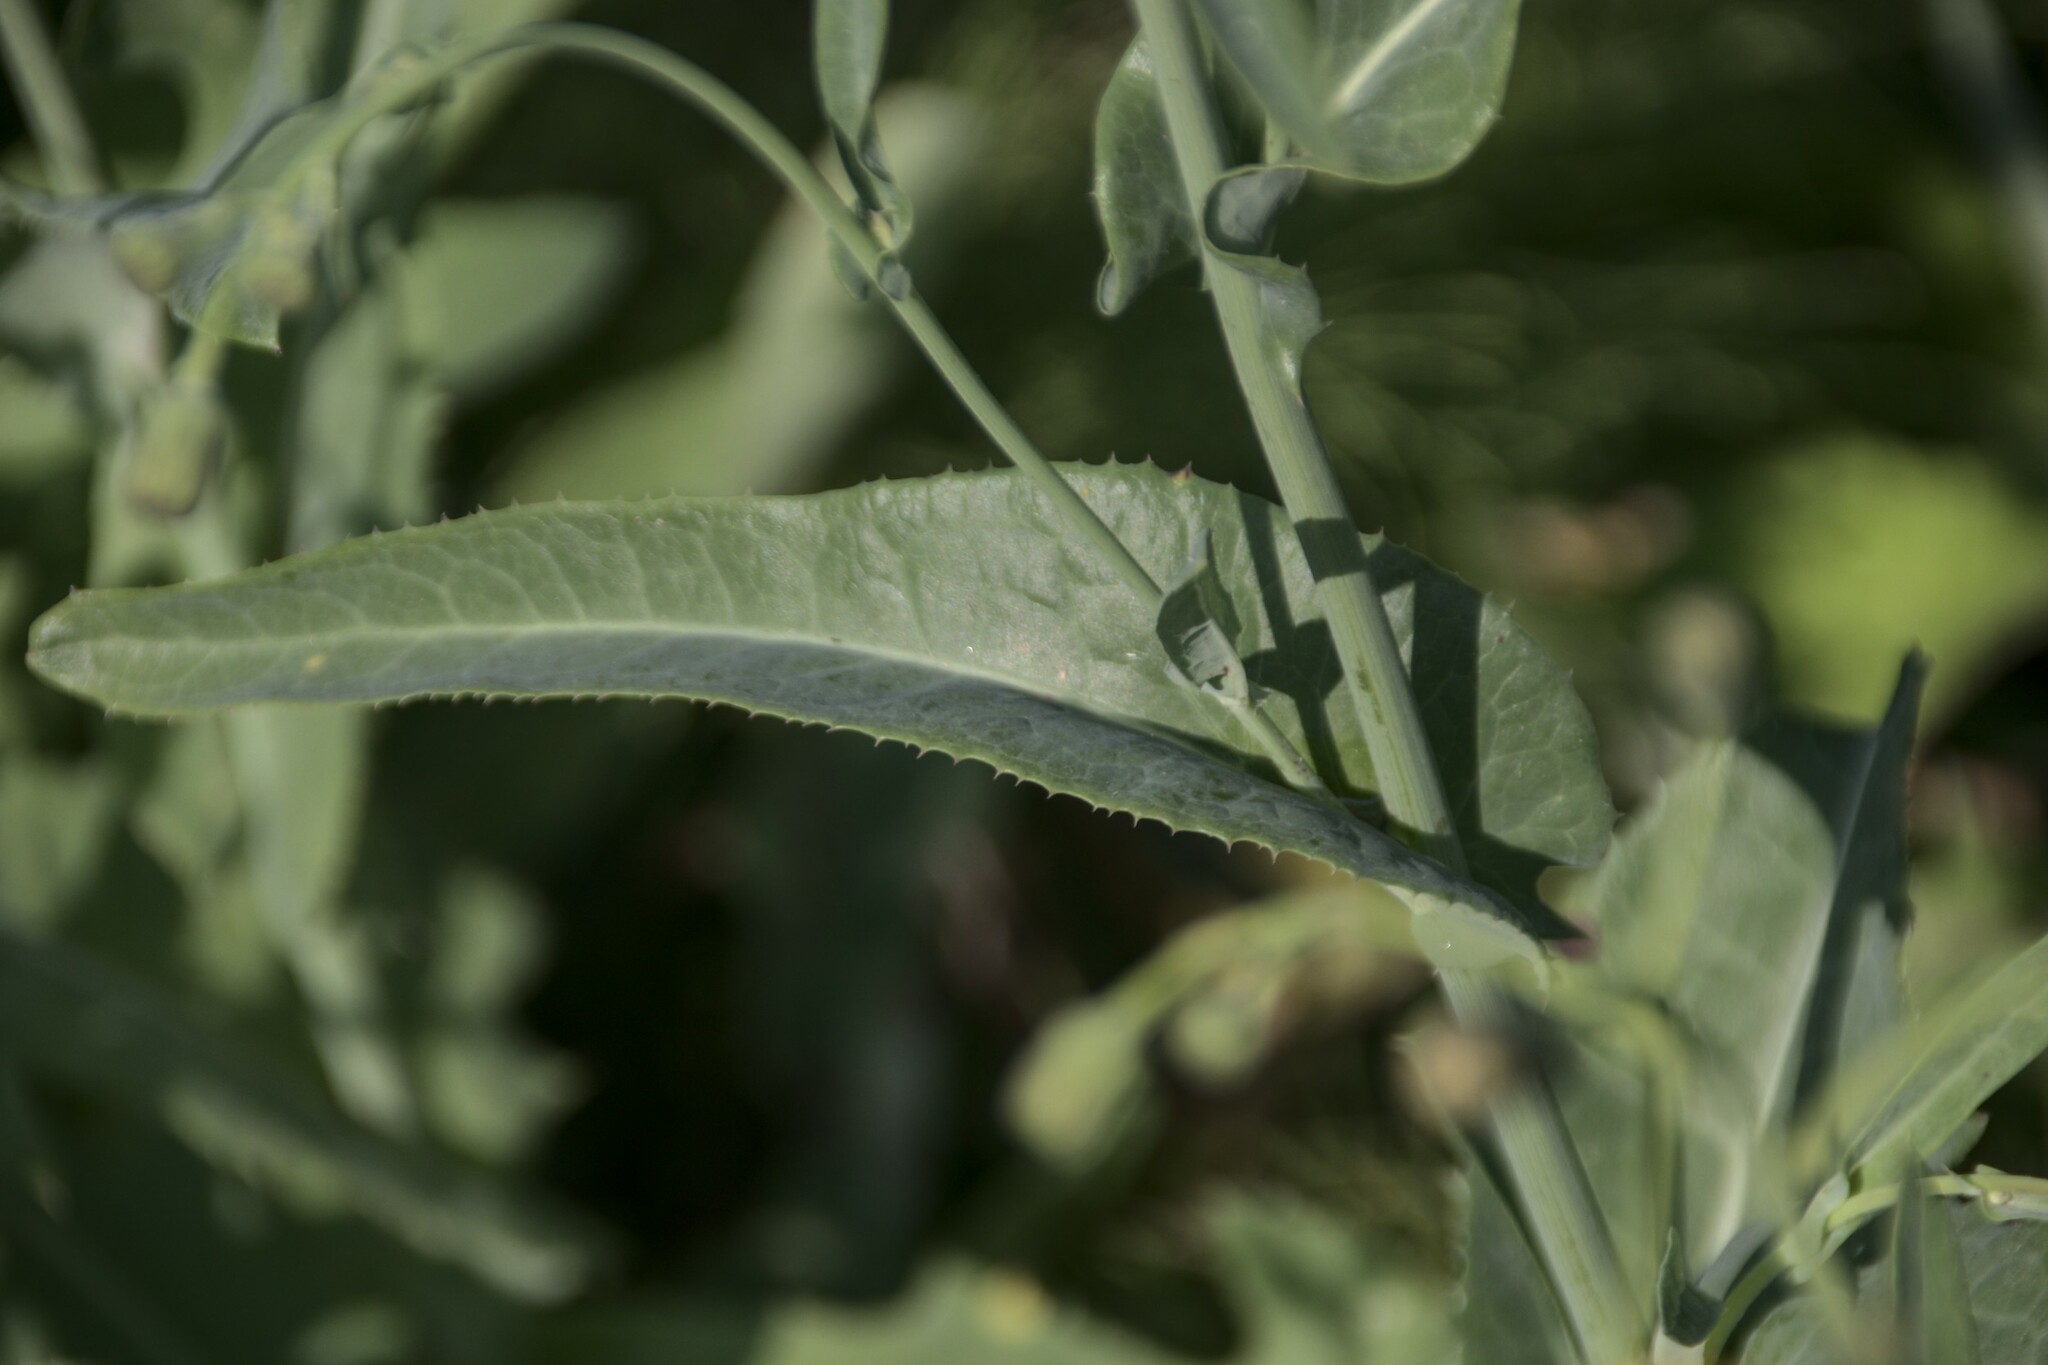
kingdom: Plantae
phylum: Tracheophyta
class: Magnoliopsida
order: Asterales
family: Asteraceae
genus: Sonchus
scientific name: Sonchus arvensis
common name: Perennial sow-thistle
